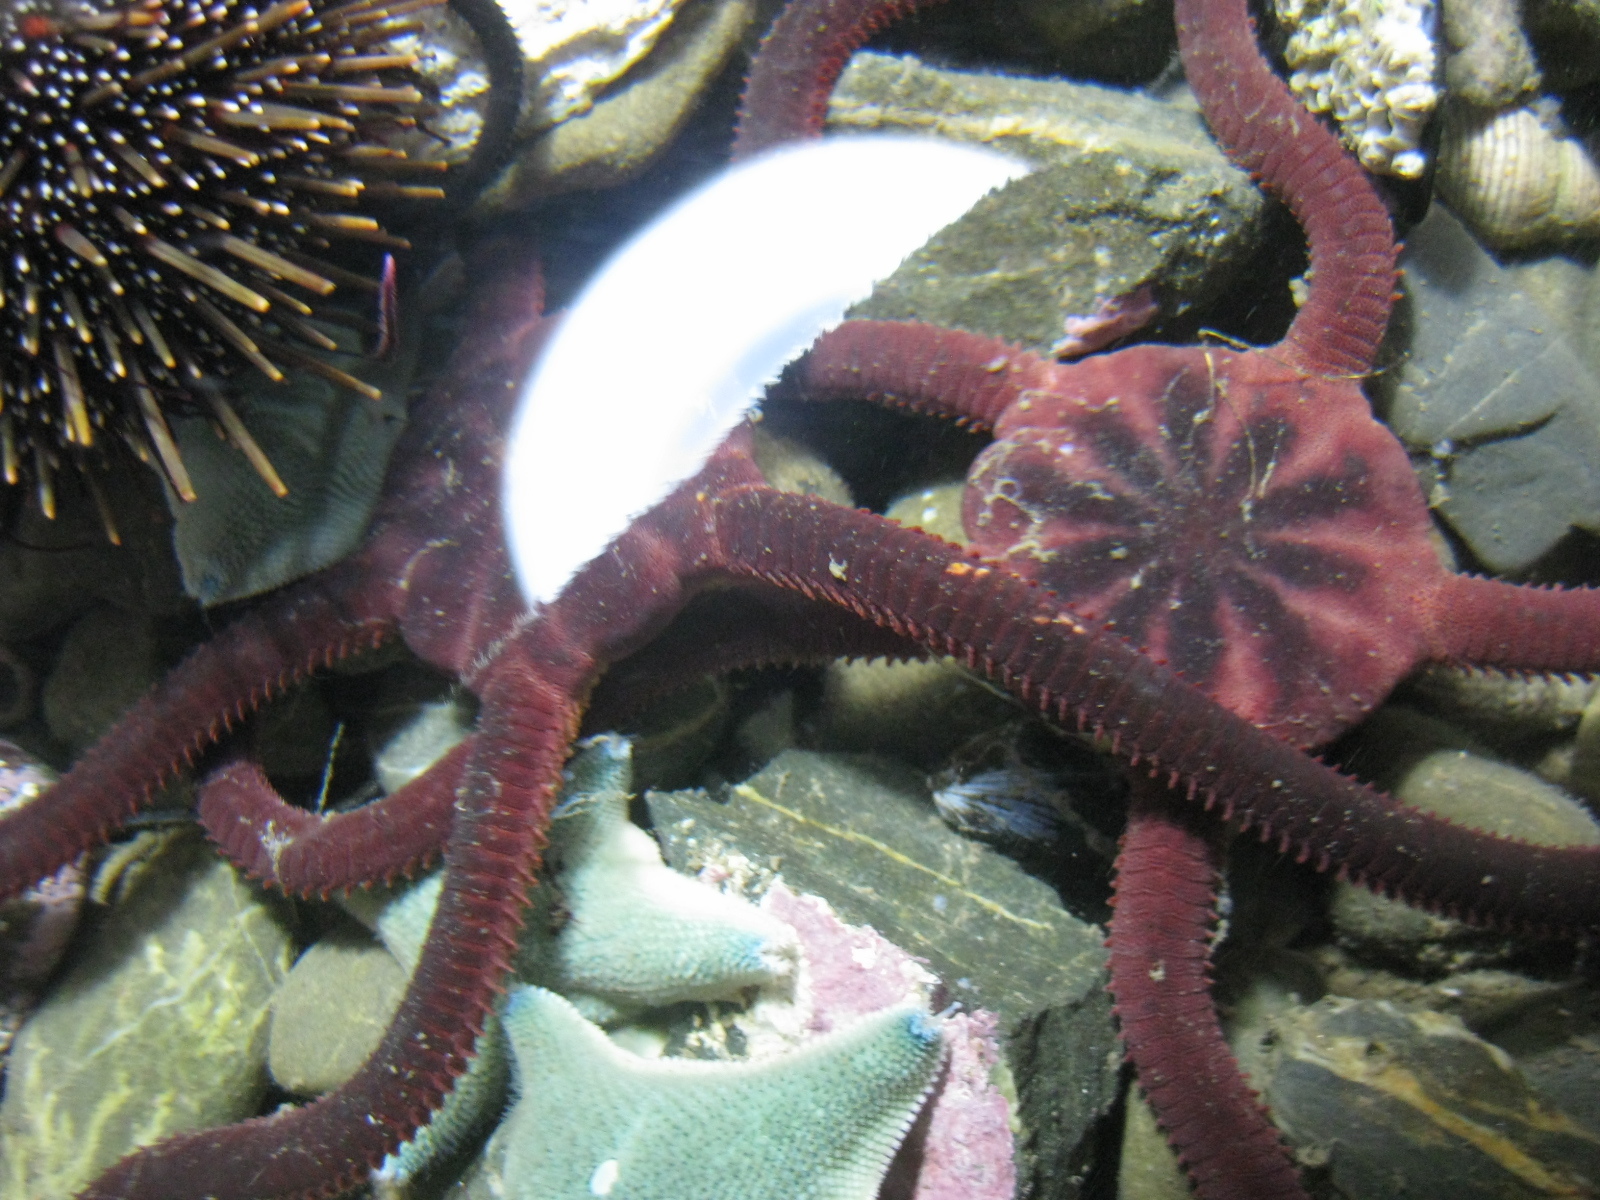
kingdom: Animalia
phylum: Echinodermata
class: Ophiuroidea
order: Ophiacanthida
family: Ophiodermatidae
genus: Ophiopsammus
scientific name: Ophiopsammus maculata
